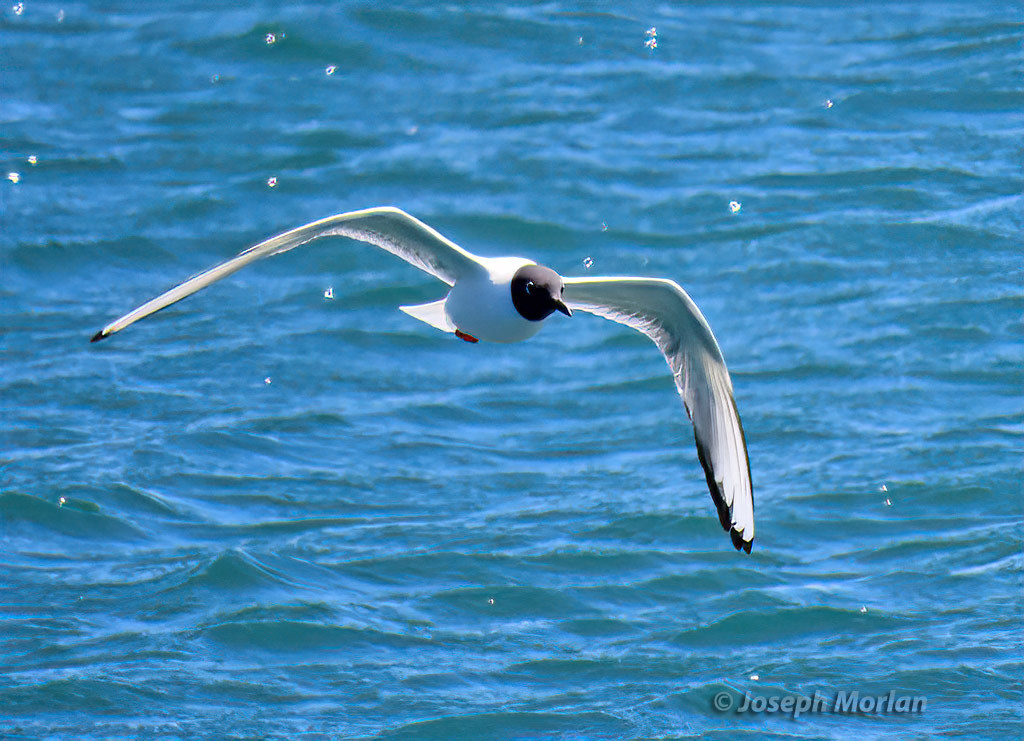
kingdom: Animalia
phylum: Chordata
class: Aves
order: Charadriiformes
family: Laridae
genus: Chroicocephalus
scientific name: Chroicocephalus philadelphia
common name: Bonaparte's gull
